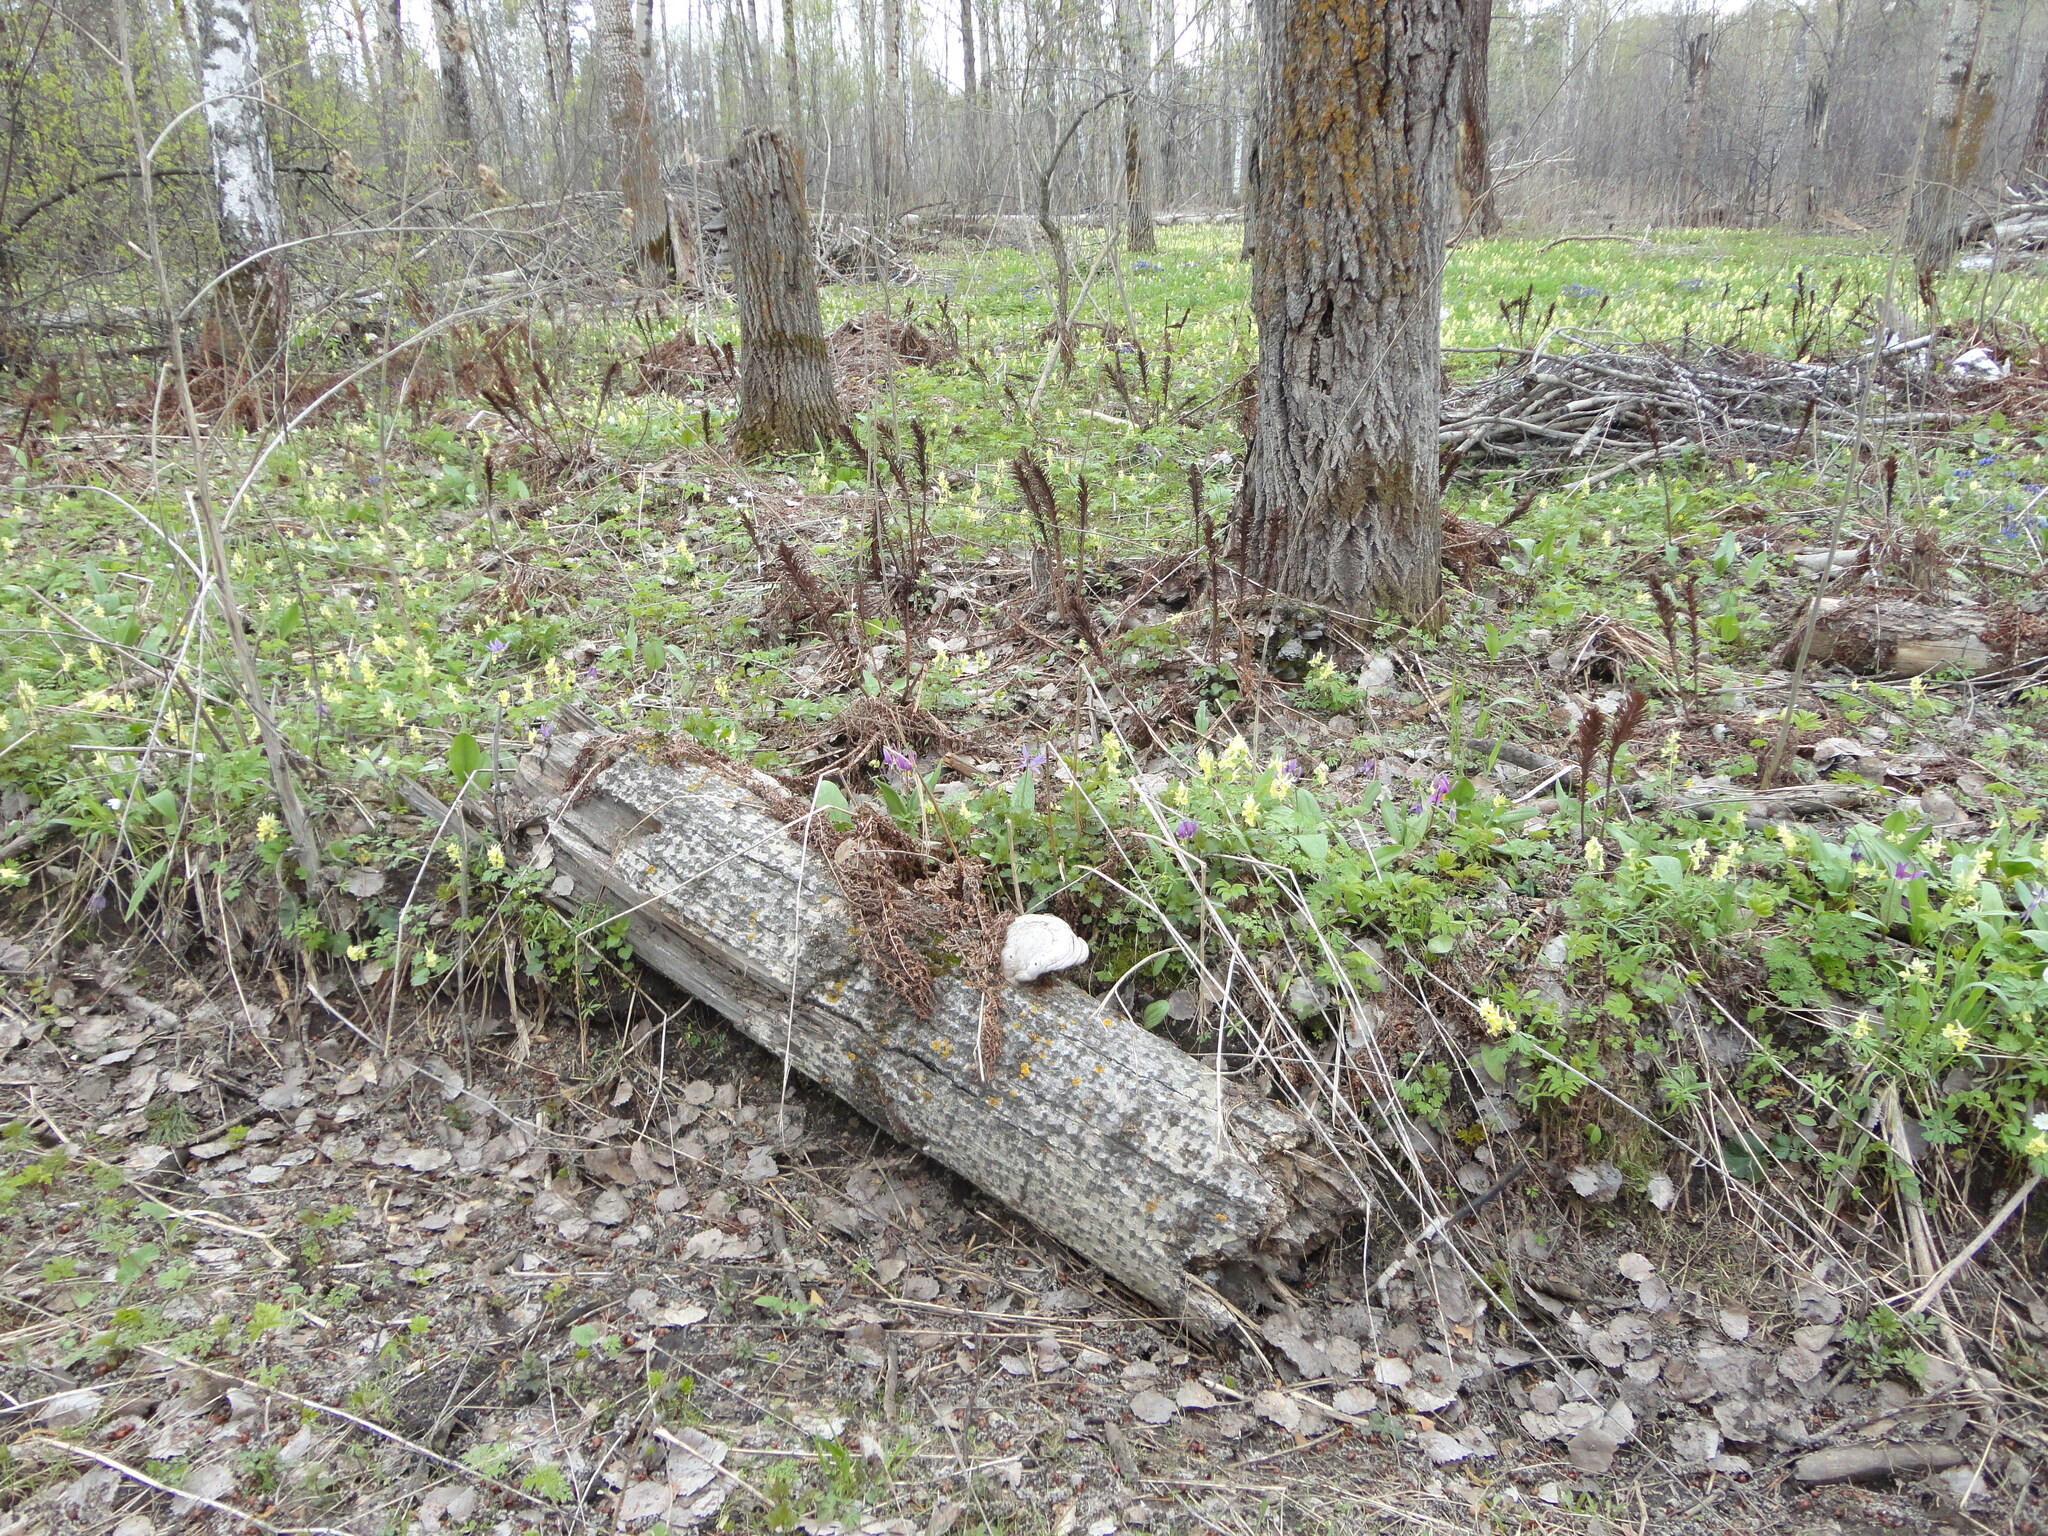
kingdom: Plantae
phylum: Tracheophyta
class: Polypodiopsida
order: Polypodiales
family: Onocleaceae
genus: Matteuccia
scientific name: Matteuccia struthiopteris
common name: Ostrich fern
